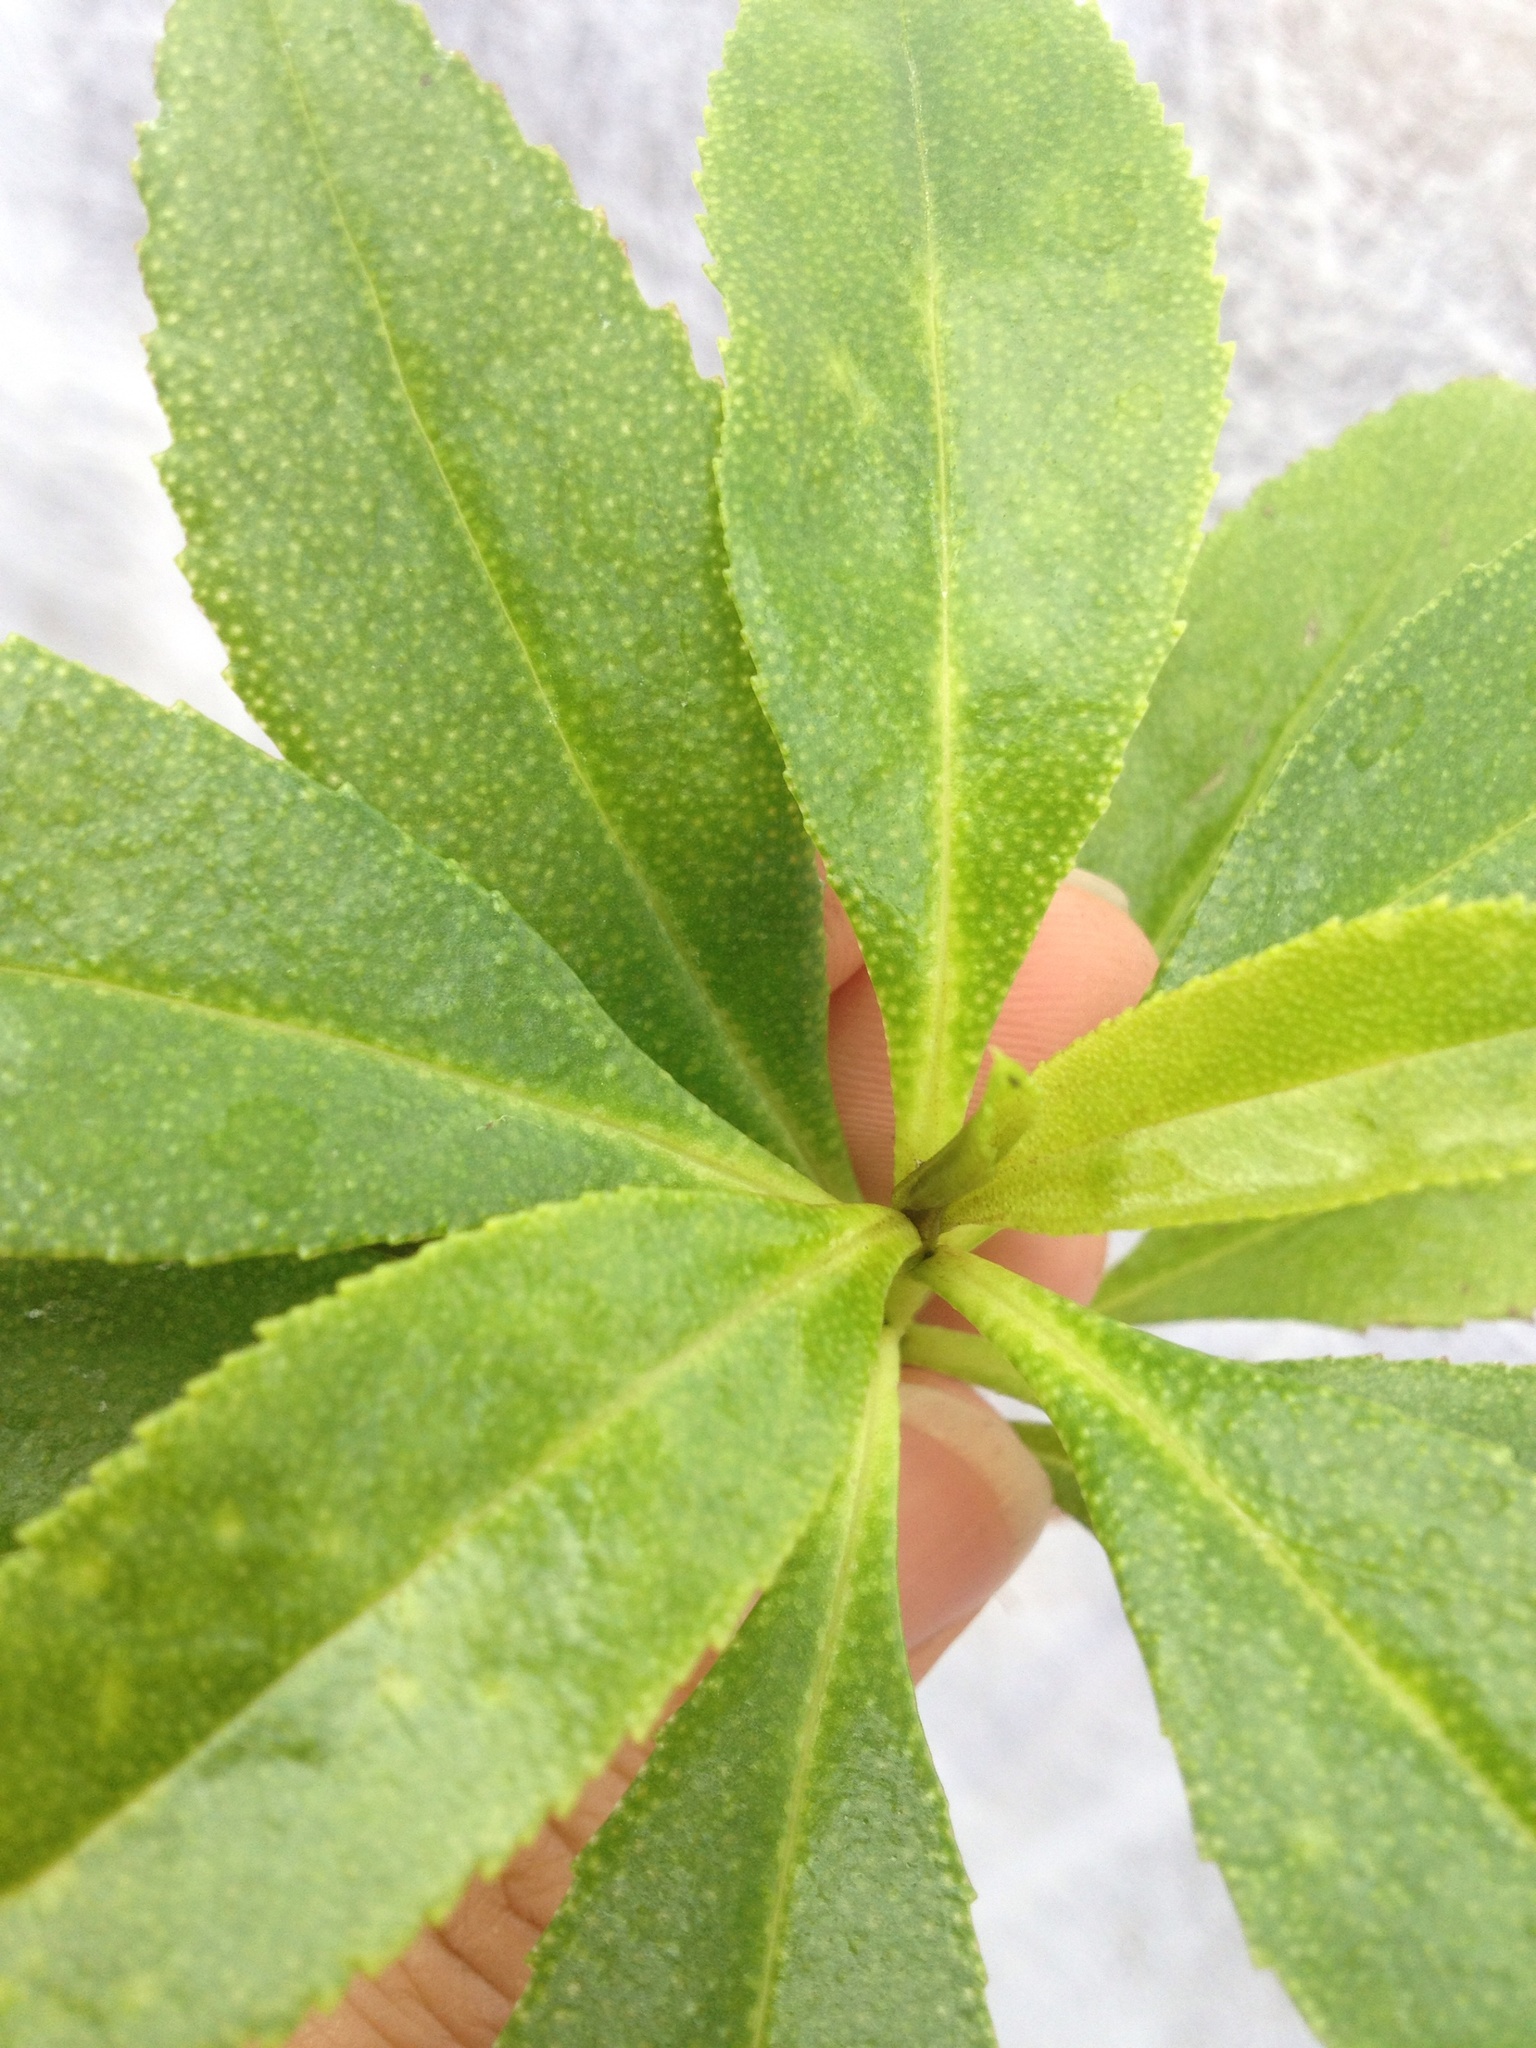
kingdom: Plantae
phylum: Tracheophyta
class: Magnoliopsida
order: Lamiales
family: Scrophulariaceae
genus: Myoporum
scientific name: Myoporum laetum
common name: Ngaio tree
